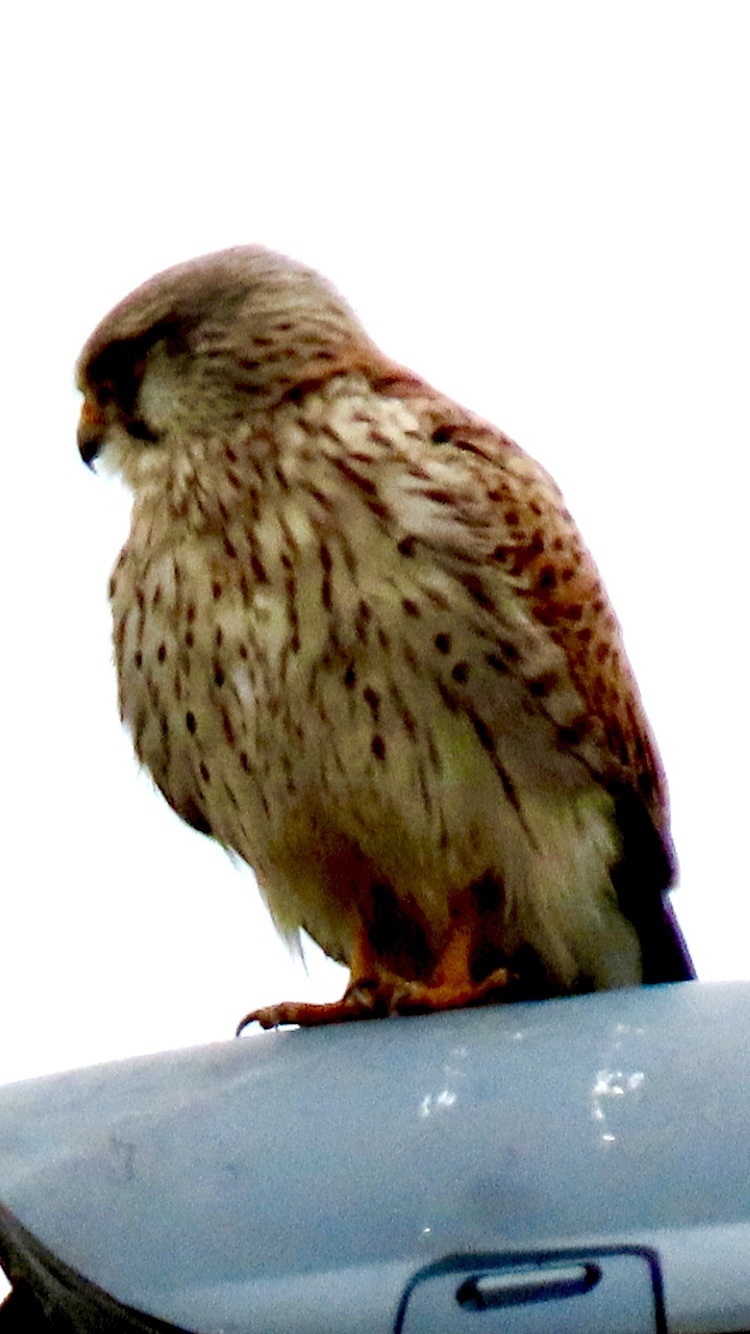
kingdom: Animalia
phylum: Chordata
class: Aves
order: Falconiformes
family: Falconidae
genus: Falco
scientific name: Falco tinnunculus
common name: Common kestrel
